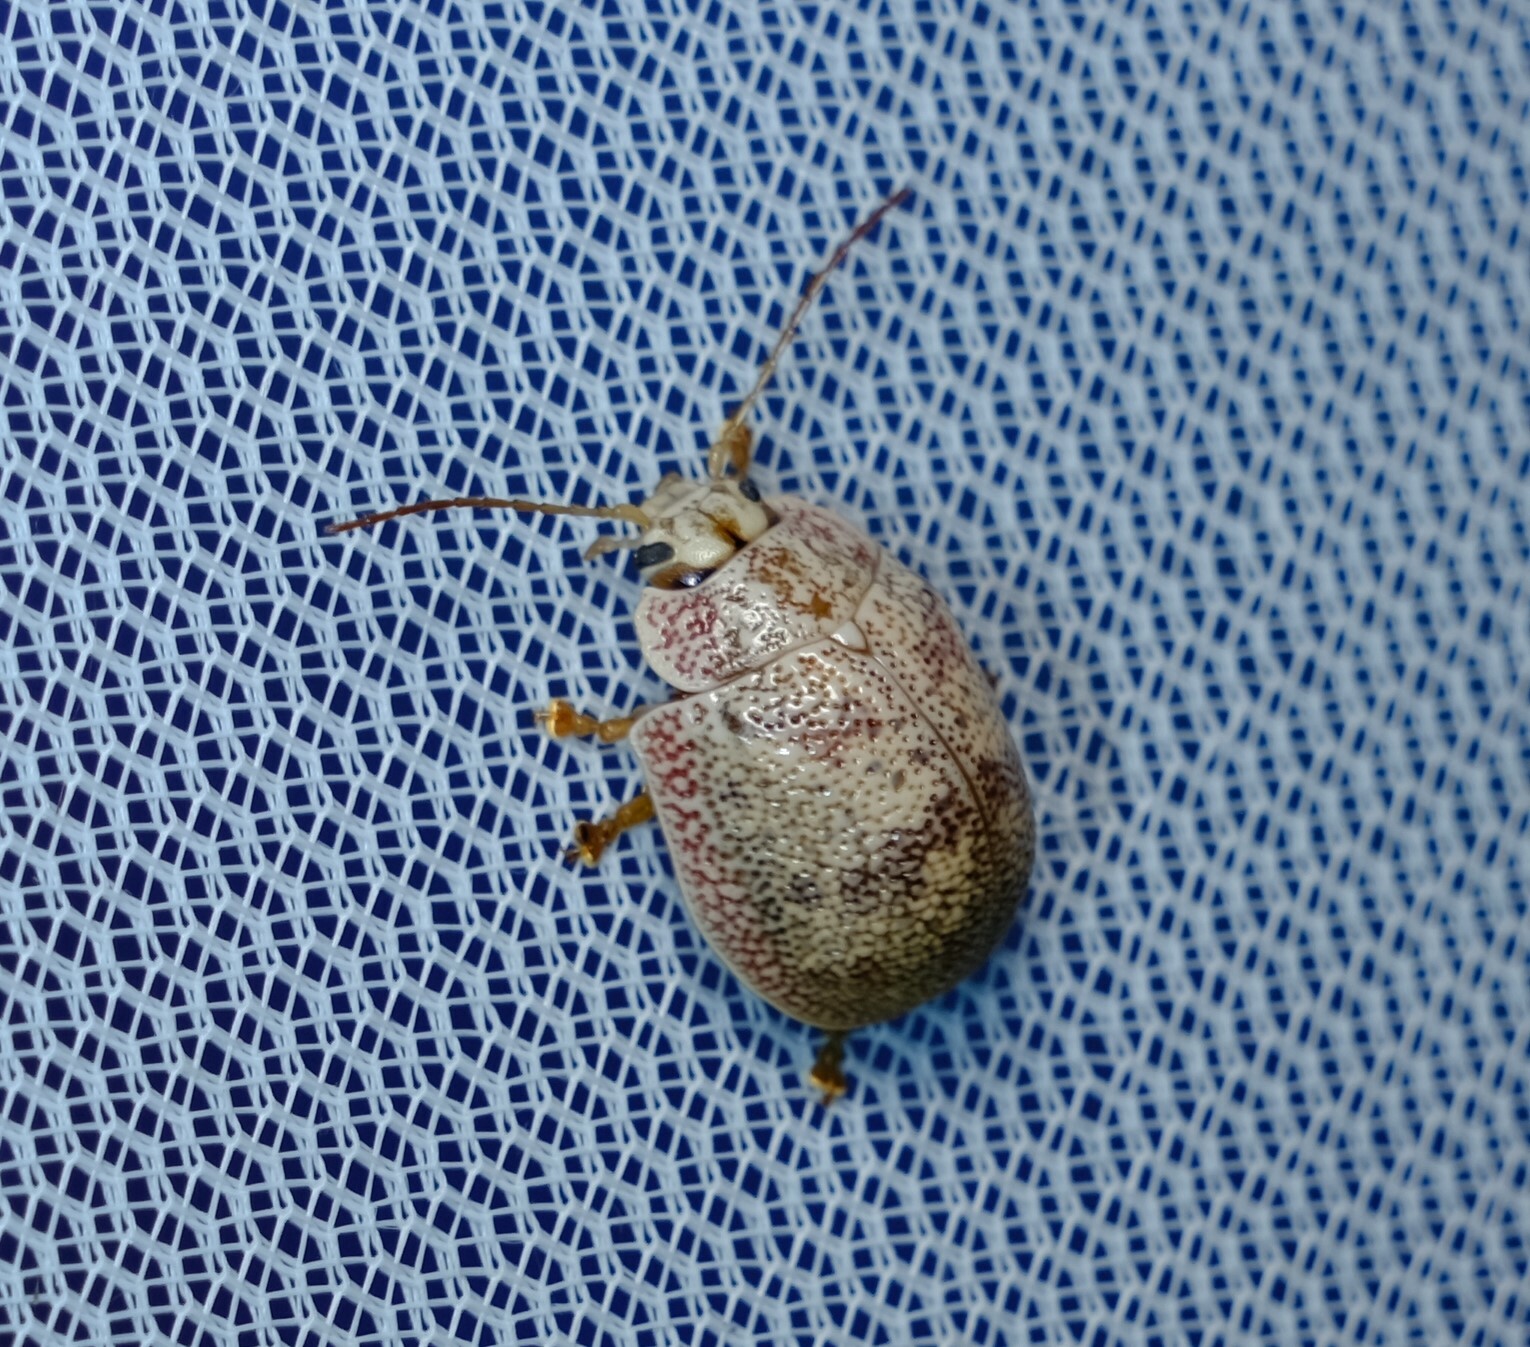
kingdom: Animalia
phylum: Arthropoda
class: Insecta
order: Coleoptera
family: Chrysomelidae
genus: Paropsis
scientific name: Paropsis charybdis
